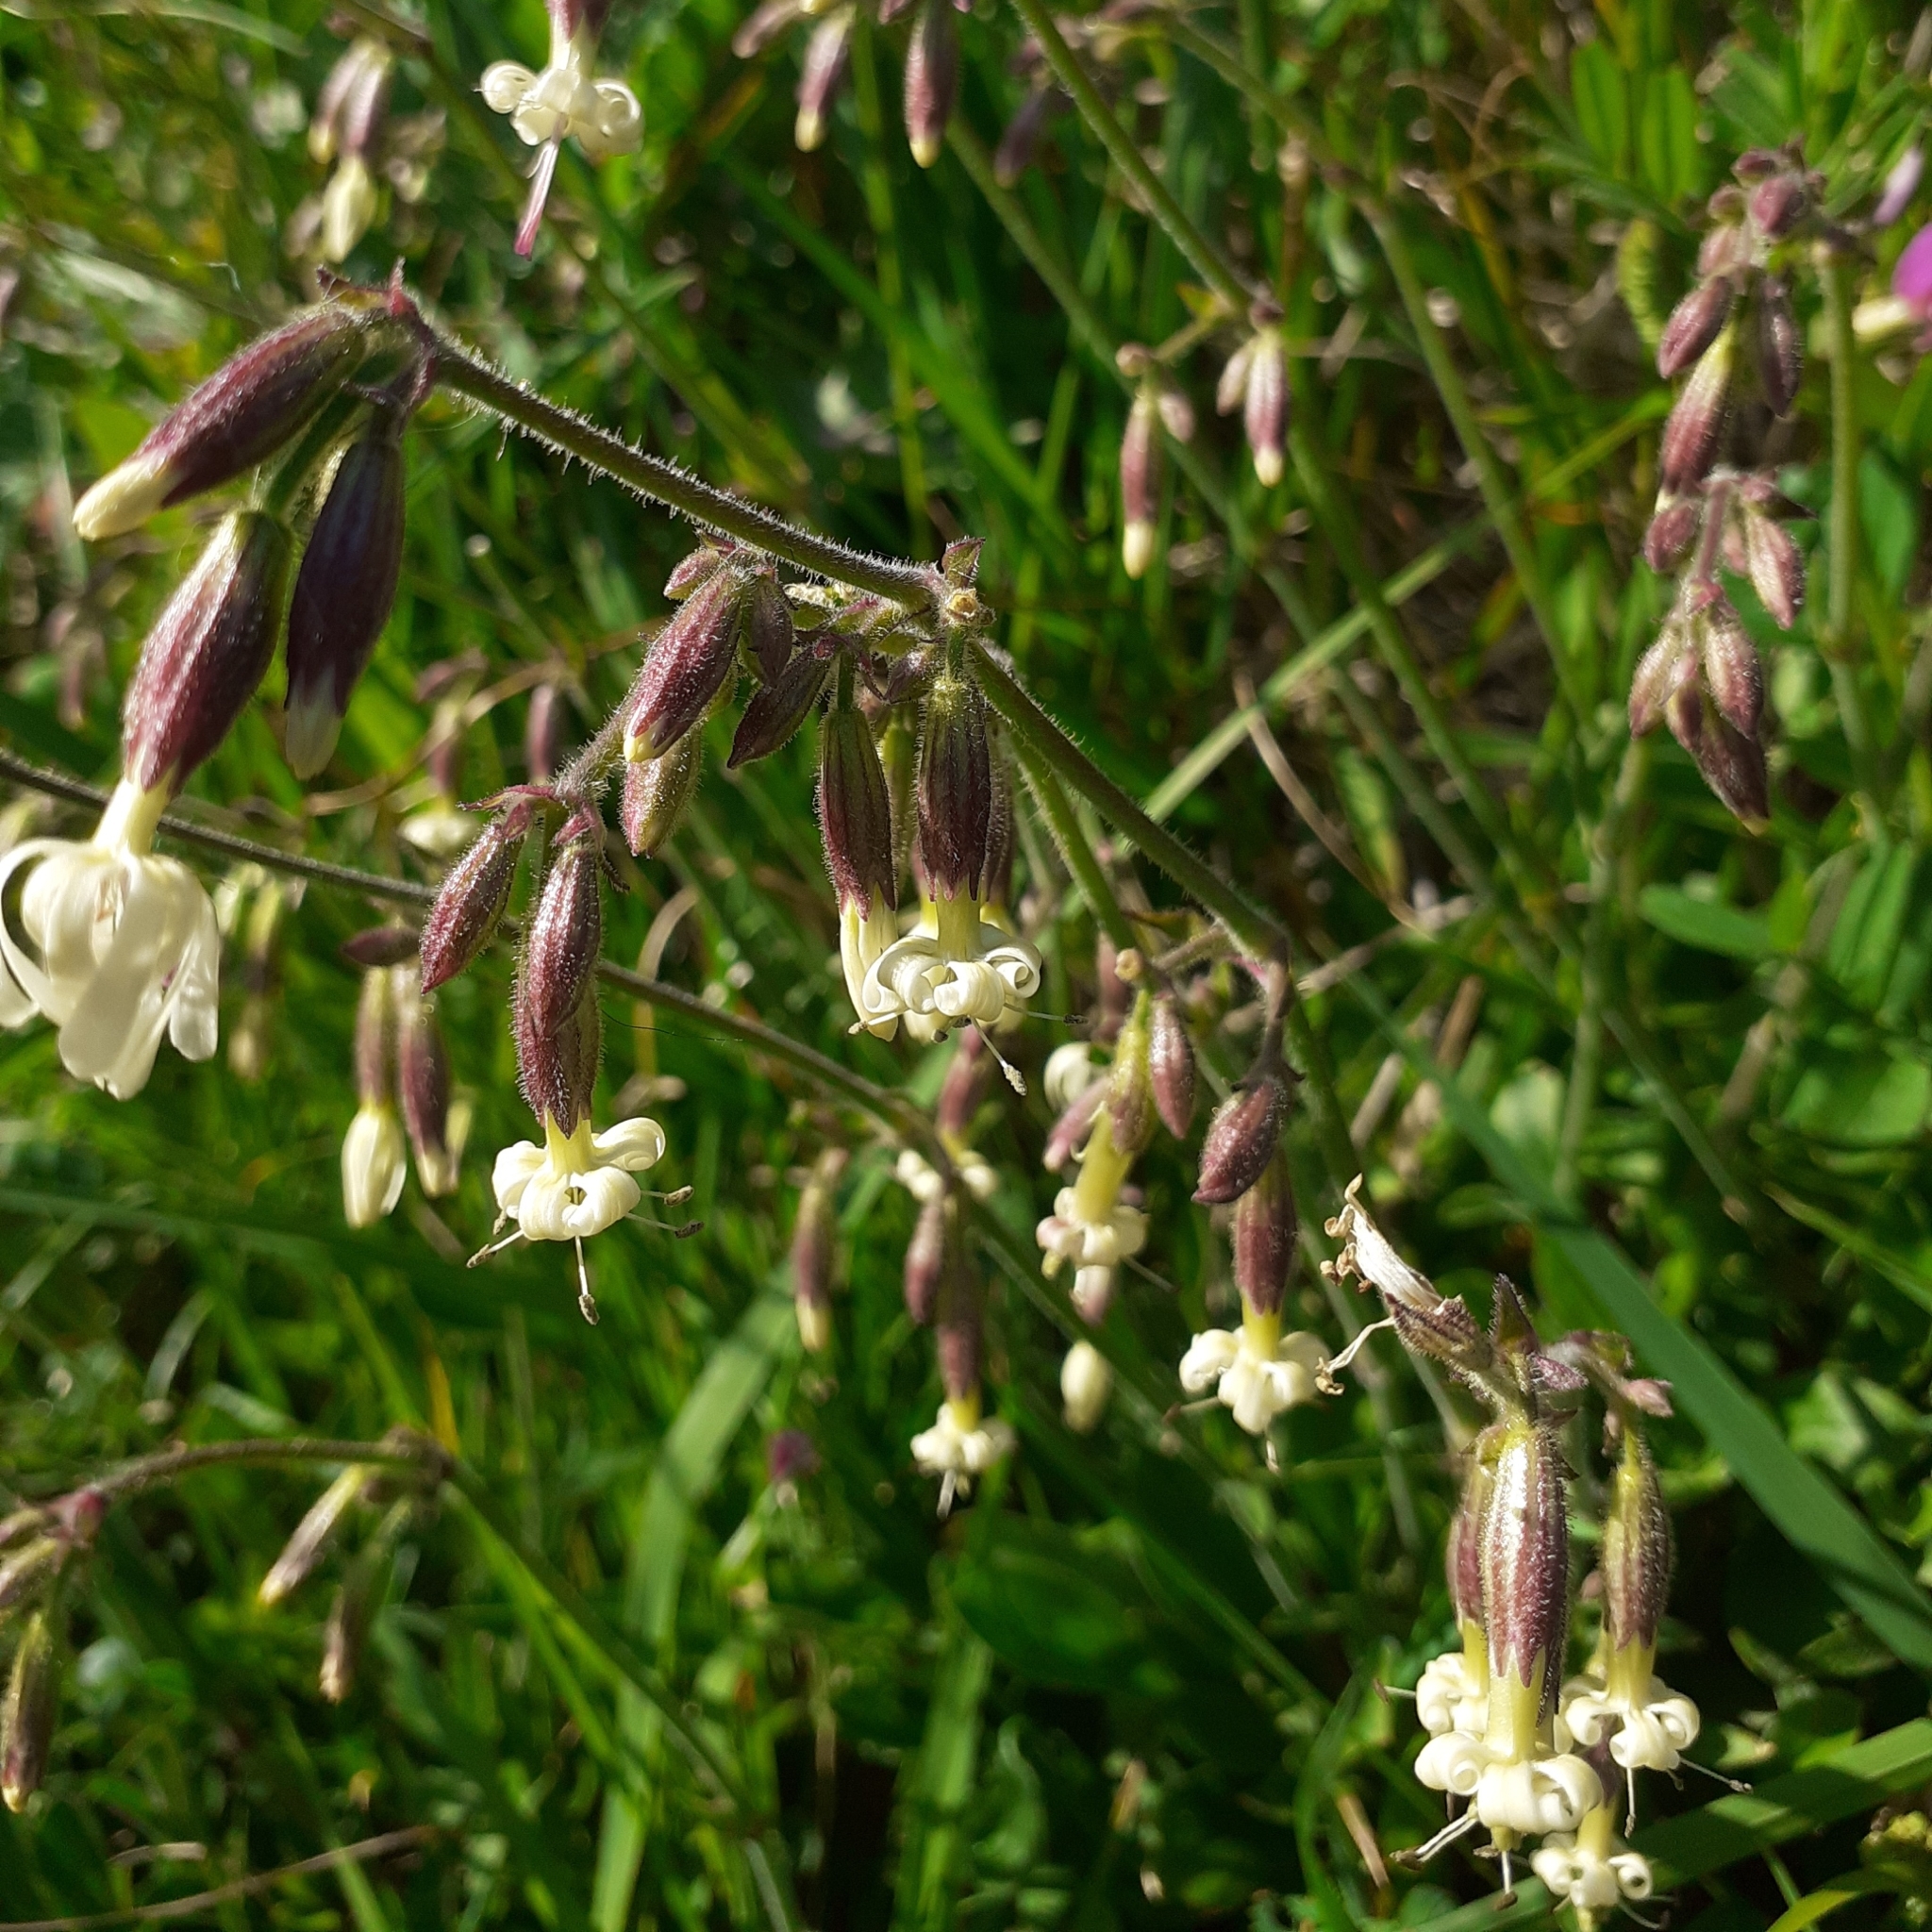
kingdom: Plantae
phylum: Tracheophyta
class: Magnoliopsida
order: Caryophyllales
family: Caryophyllaceae
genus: Silene
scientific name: Silene nutans
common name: Nottingham catchfly
